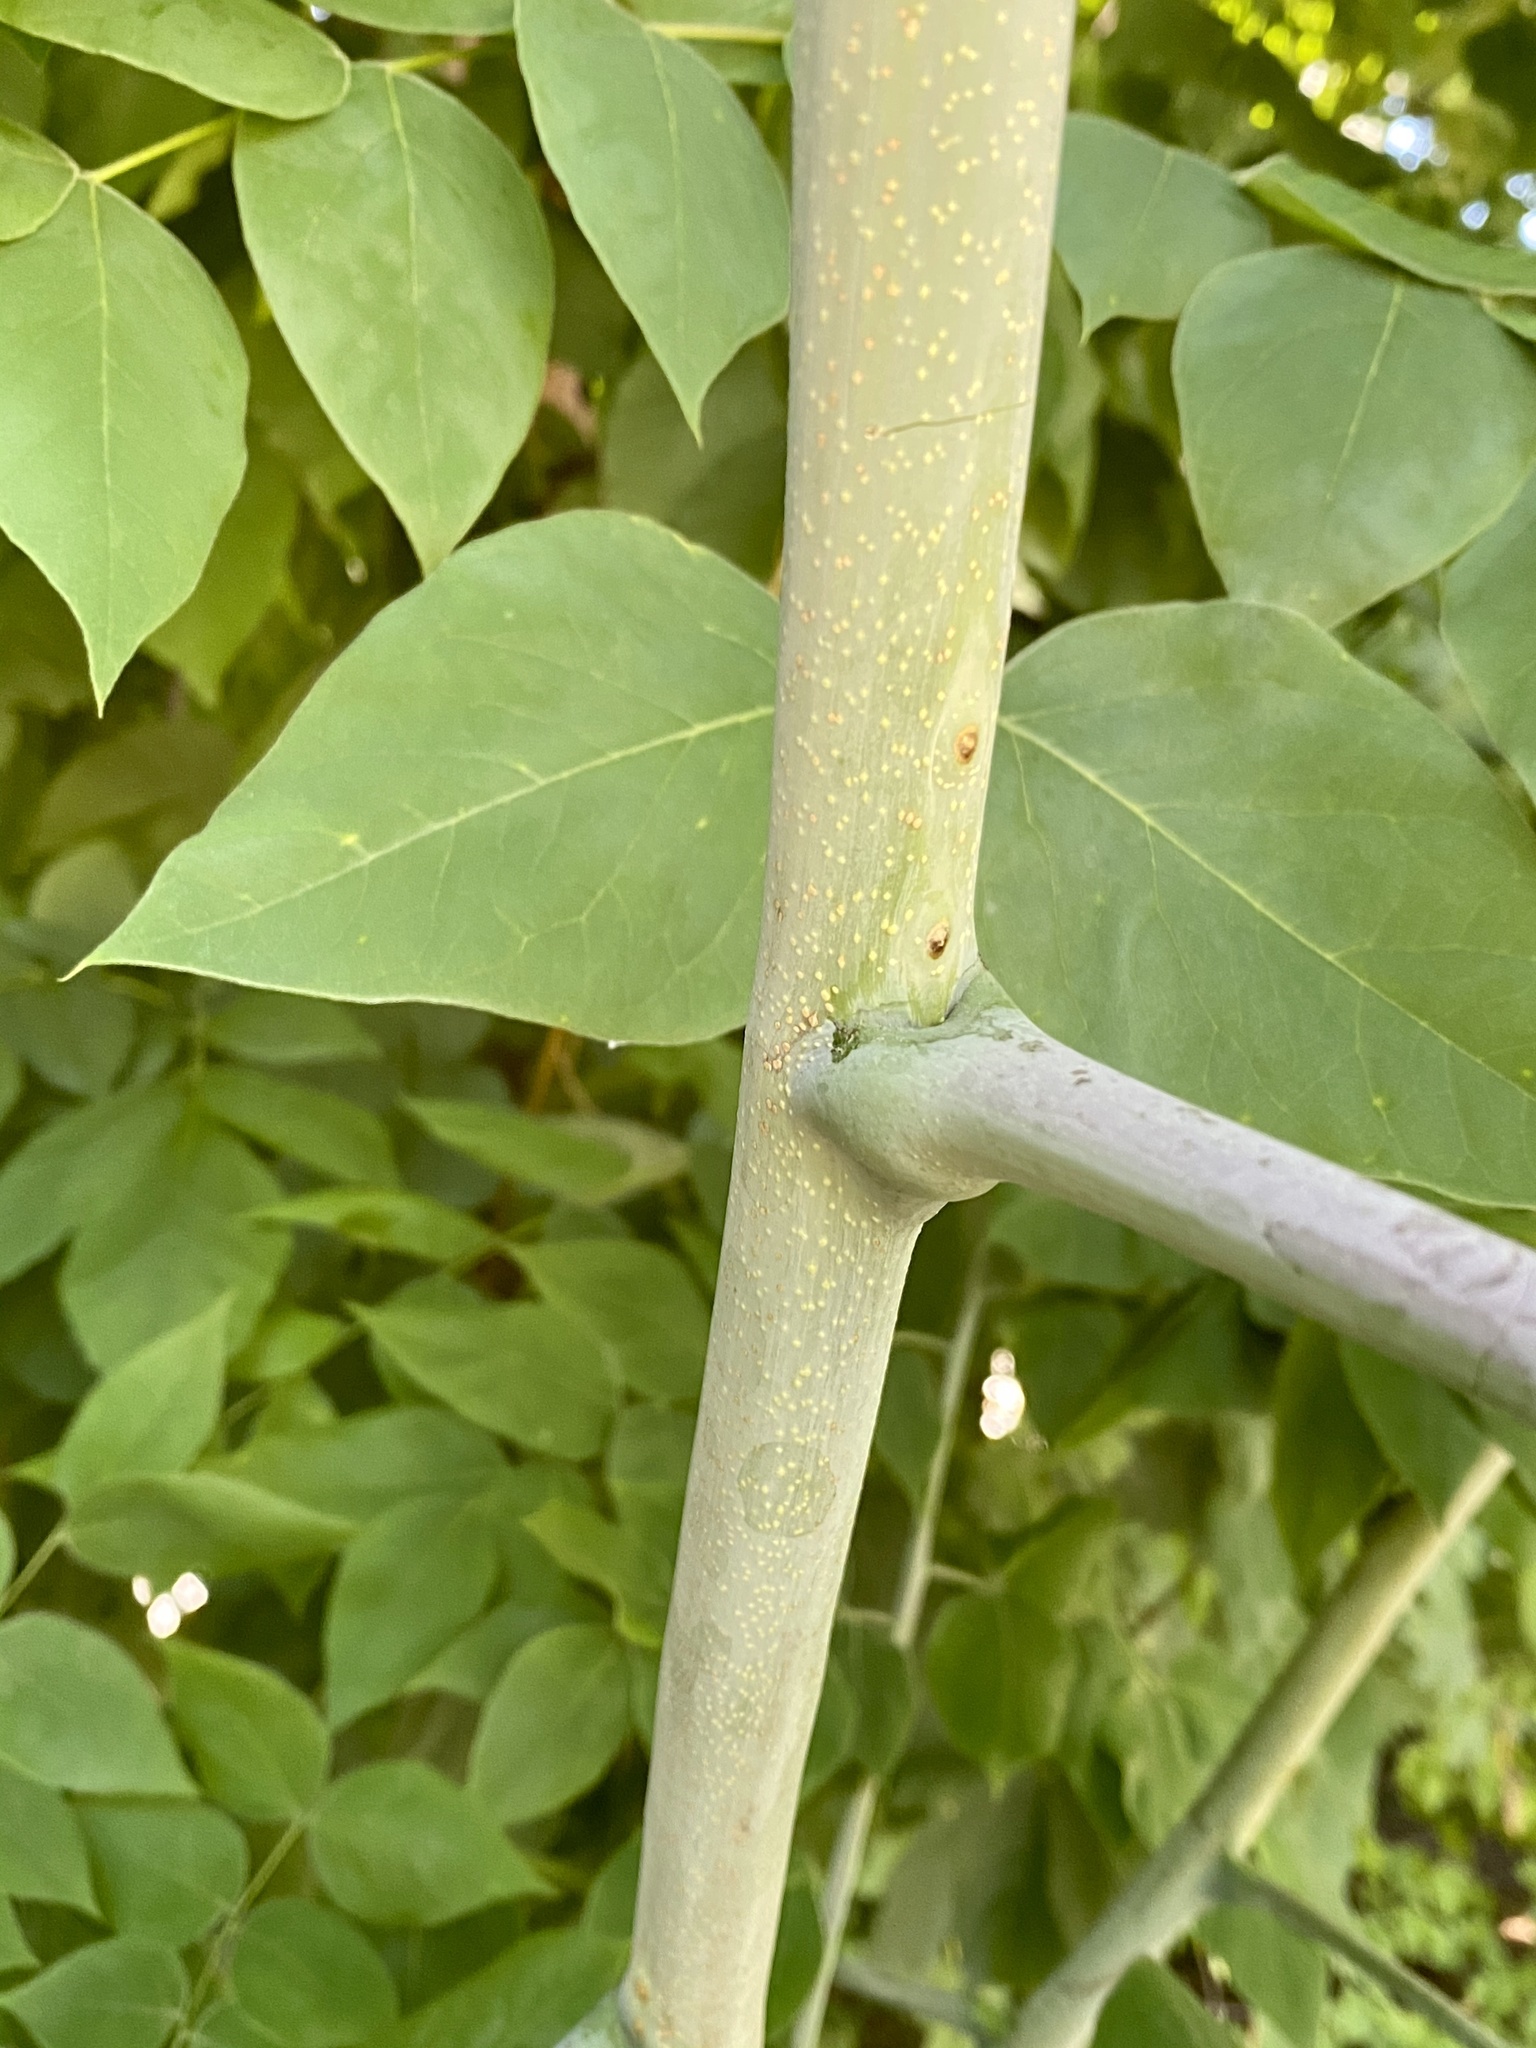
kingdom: Plantae
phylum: Tracheophyta
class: Magnoliopsida
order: Fabales
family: Fabaceae
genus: Gymnocladus
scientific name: Gymnocladus dioicus
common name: Kentucky coffee-tree
